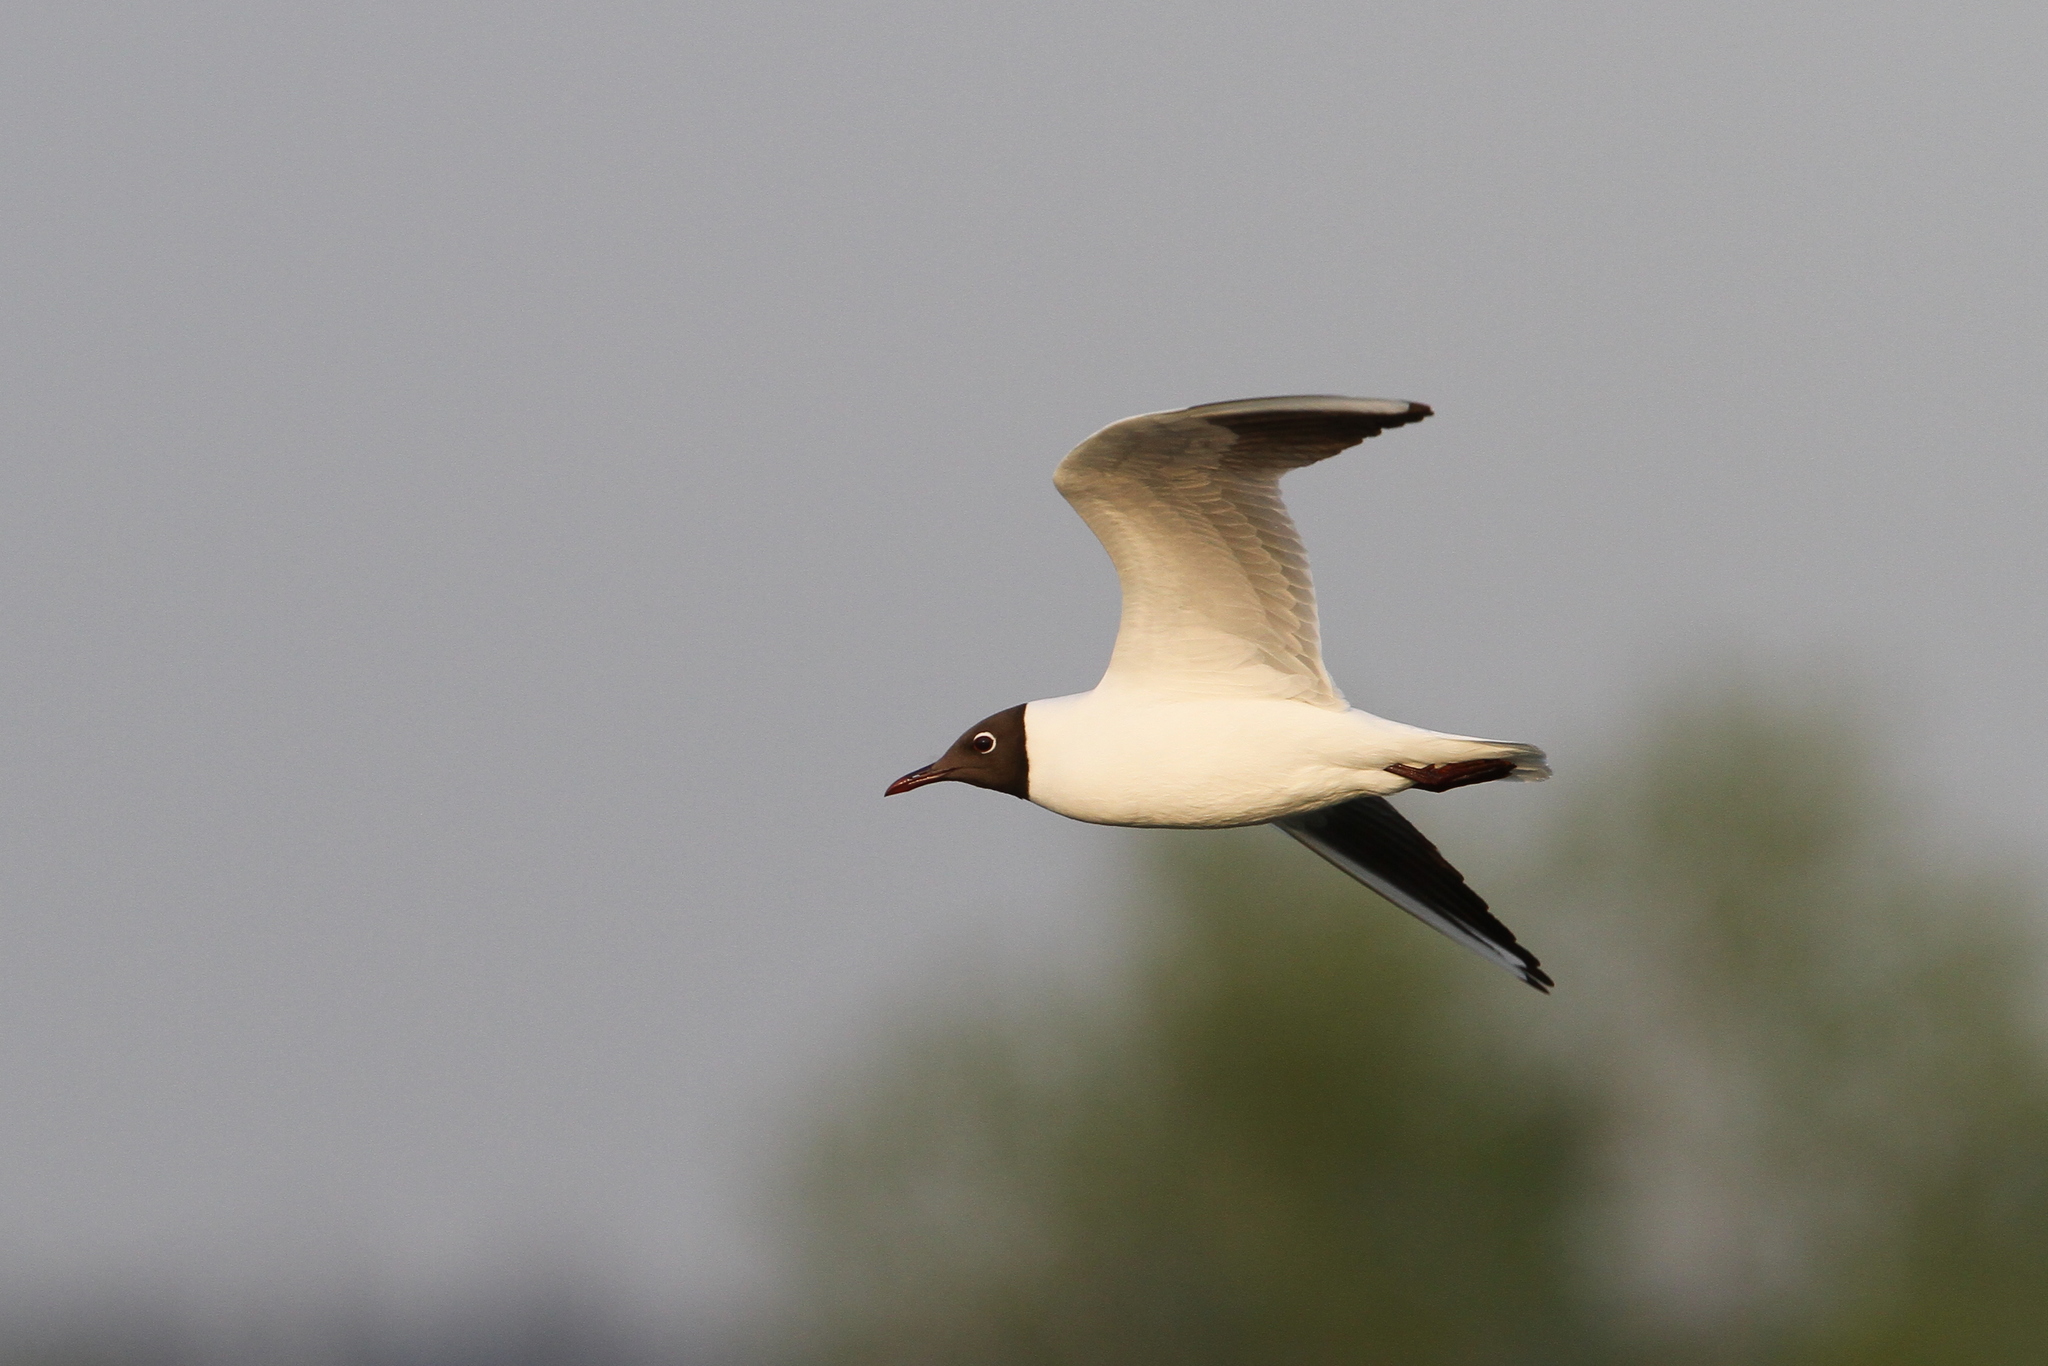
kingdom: Animalia
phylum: Chordata
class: Aves
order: Charadriiformes
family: Laridae
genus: Chroicocephalus
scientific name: Chroicocephalus ridibundus
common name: Black-headed gull
